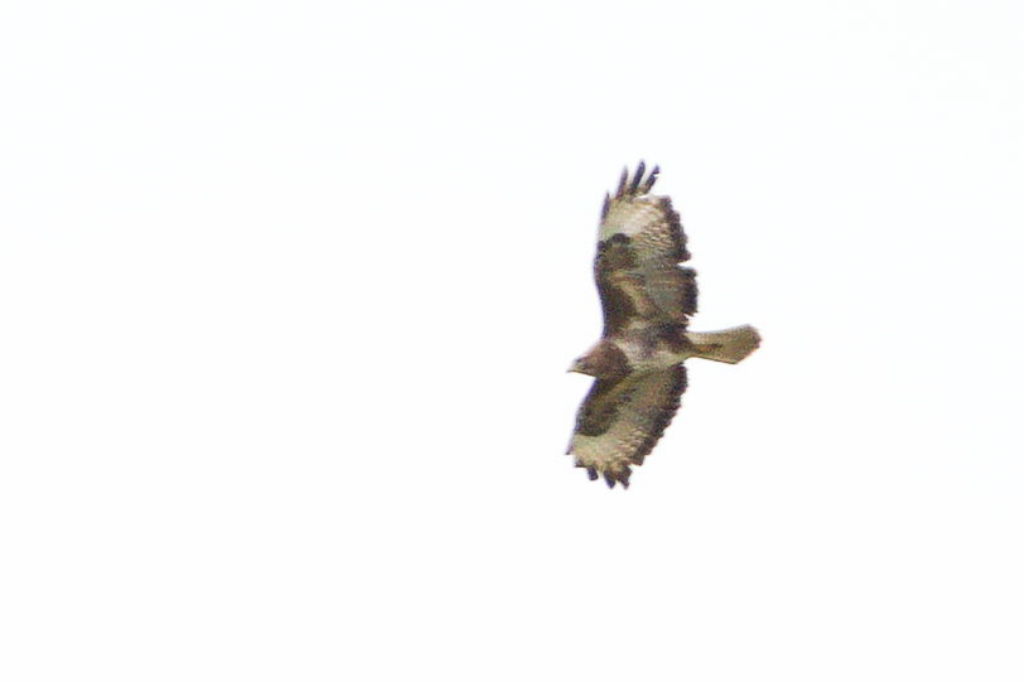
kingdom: Animalia
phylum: Chordata
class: Aves
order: Accipitriformes
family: Accipitridae
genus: Buteo
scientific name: Buteo buteo
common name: Common buzzard
